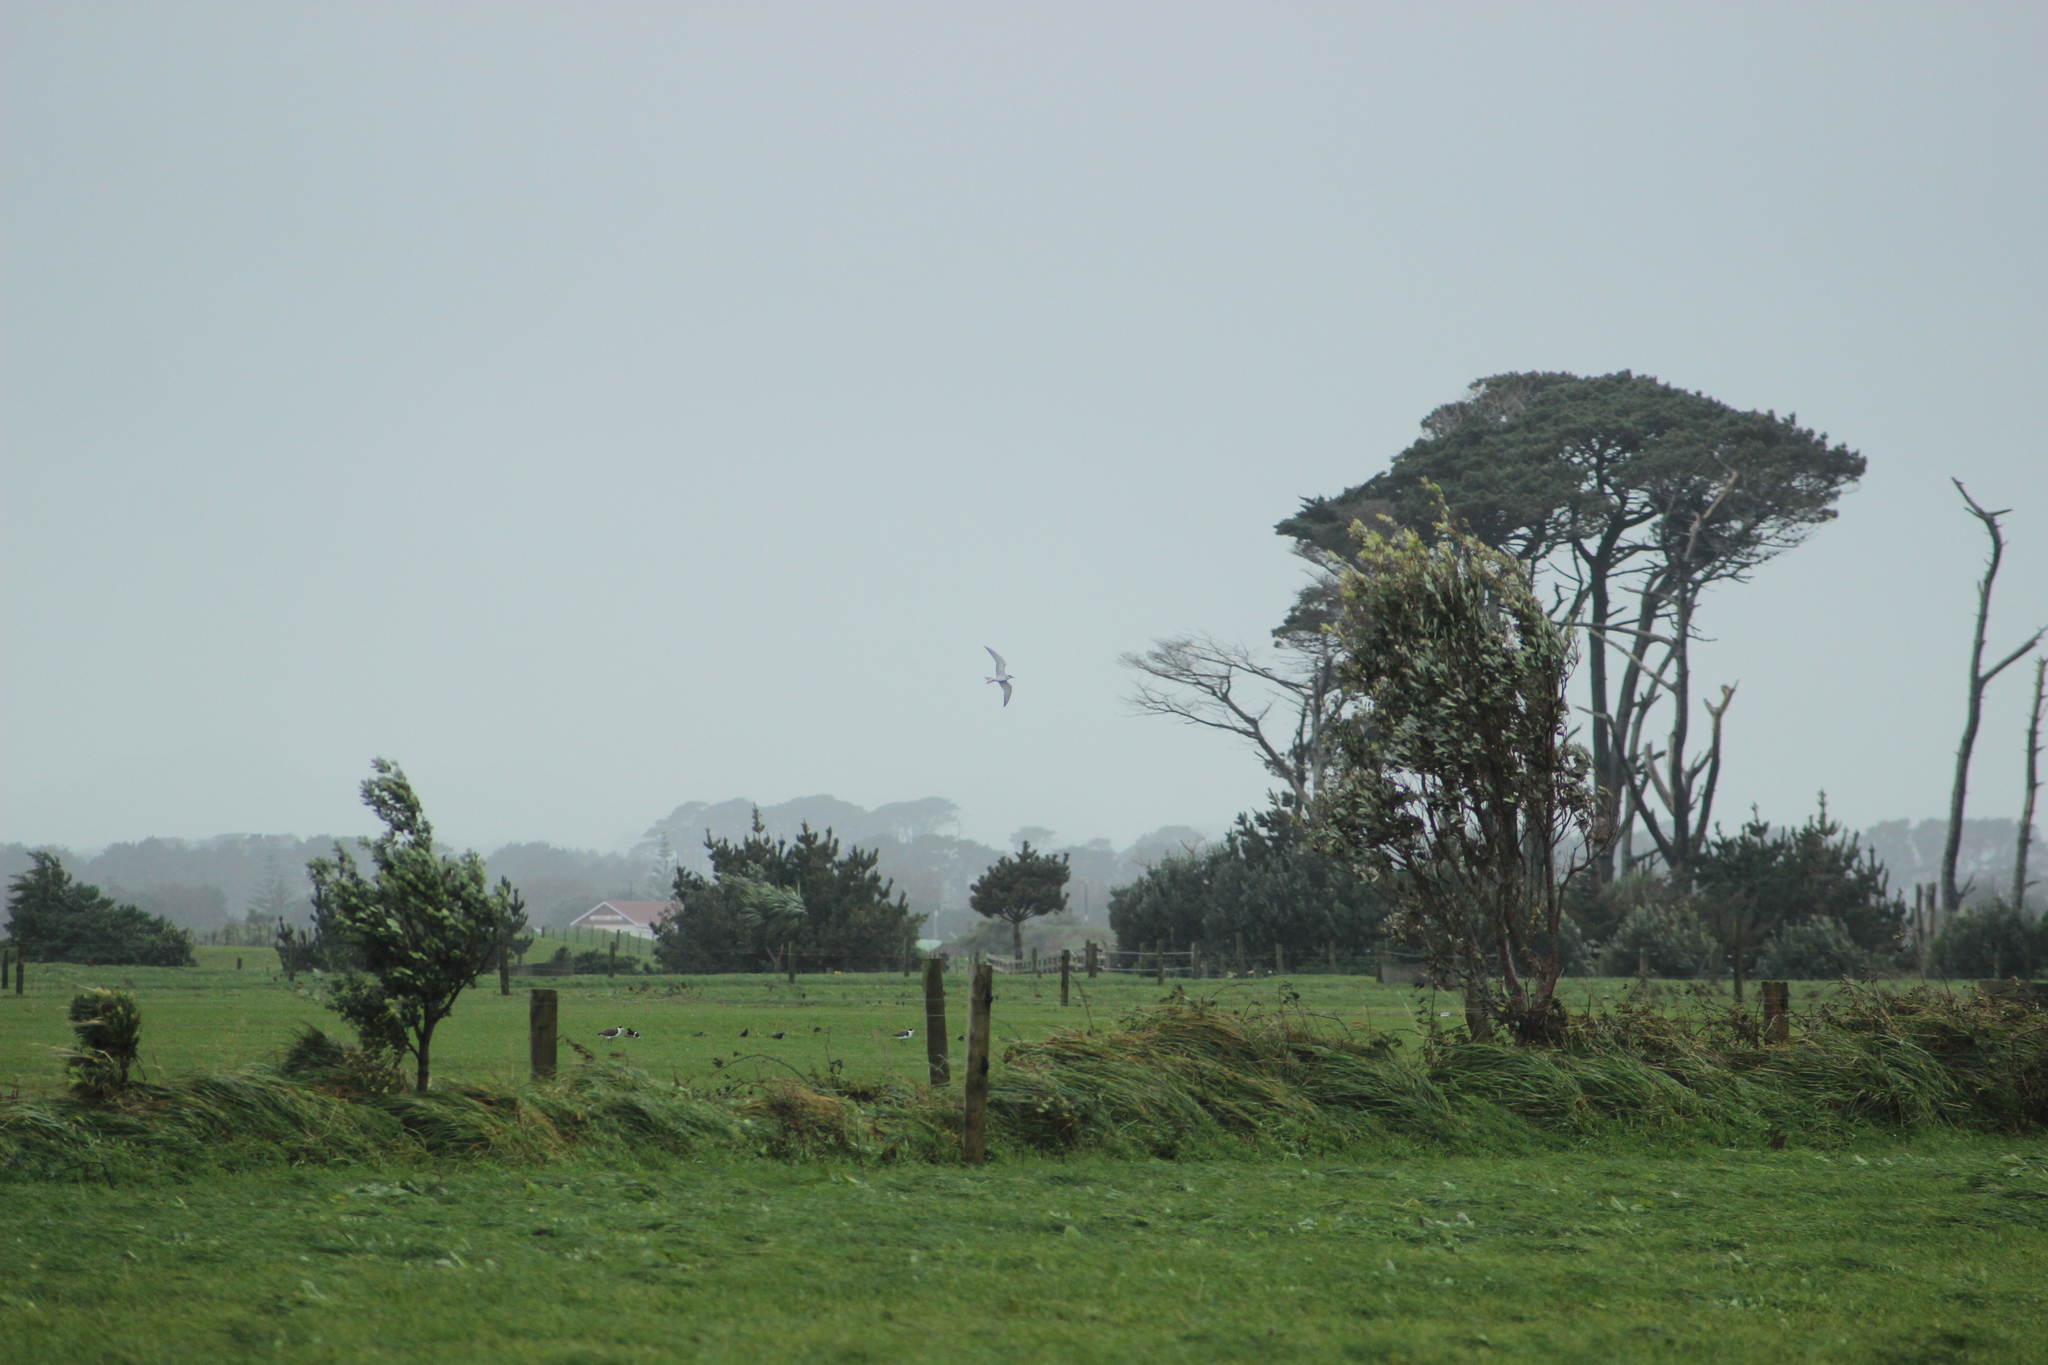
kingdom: Animalia
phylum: Chordata
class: Aves
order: Charadriiformes
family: Laridae
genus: Chlidonias
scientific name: Chlidonias albostriatus
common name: Black-fronted tern
